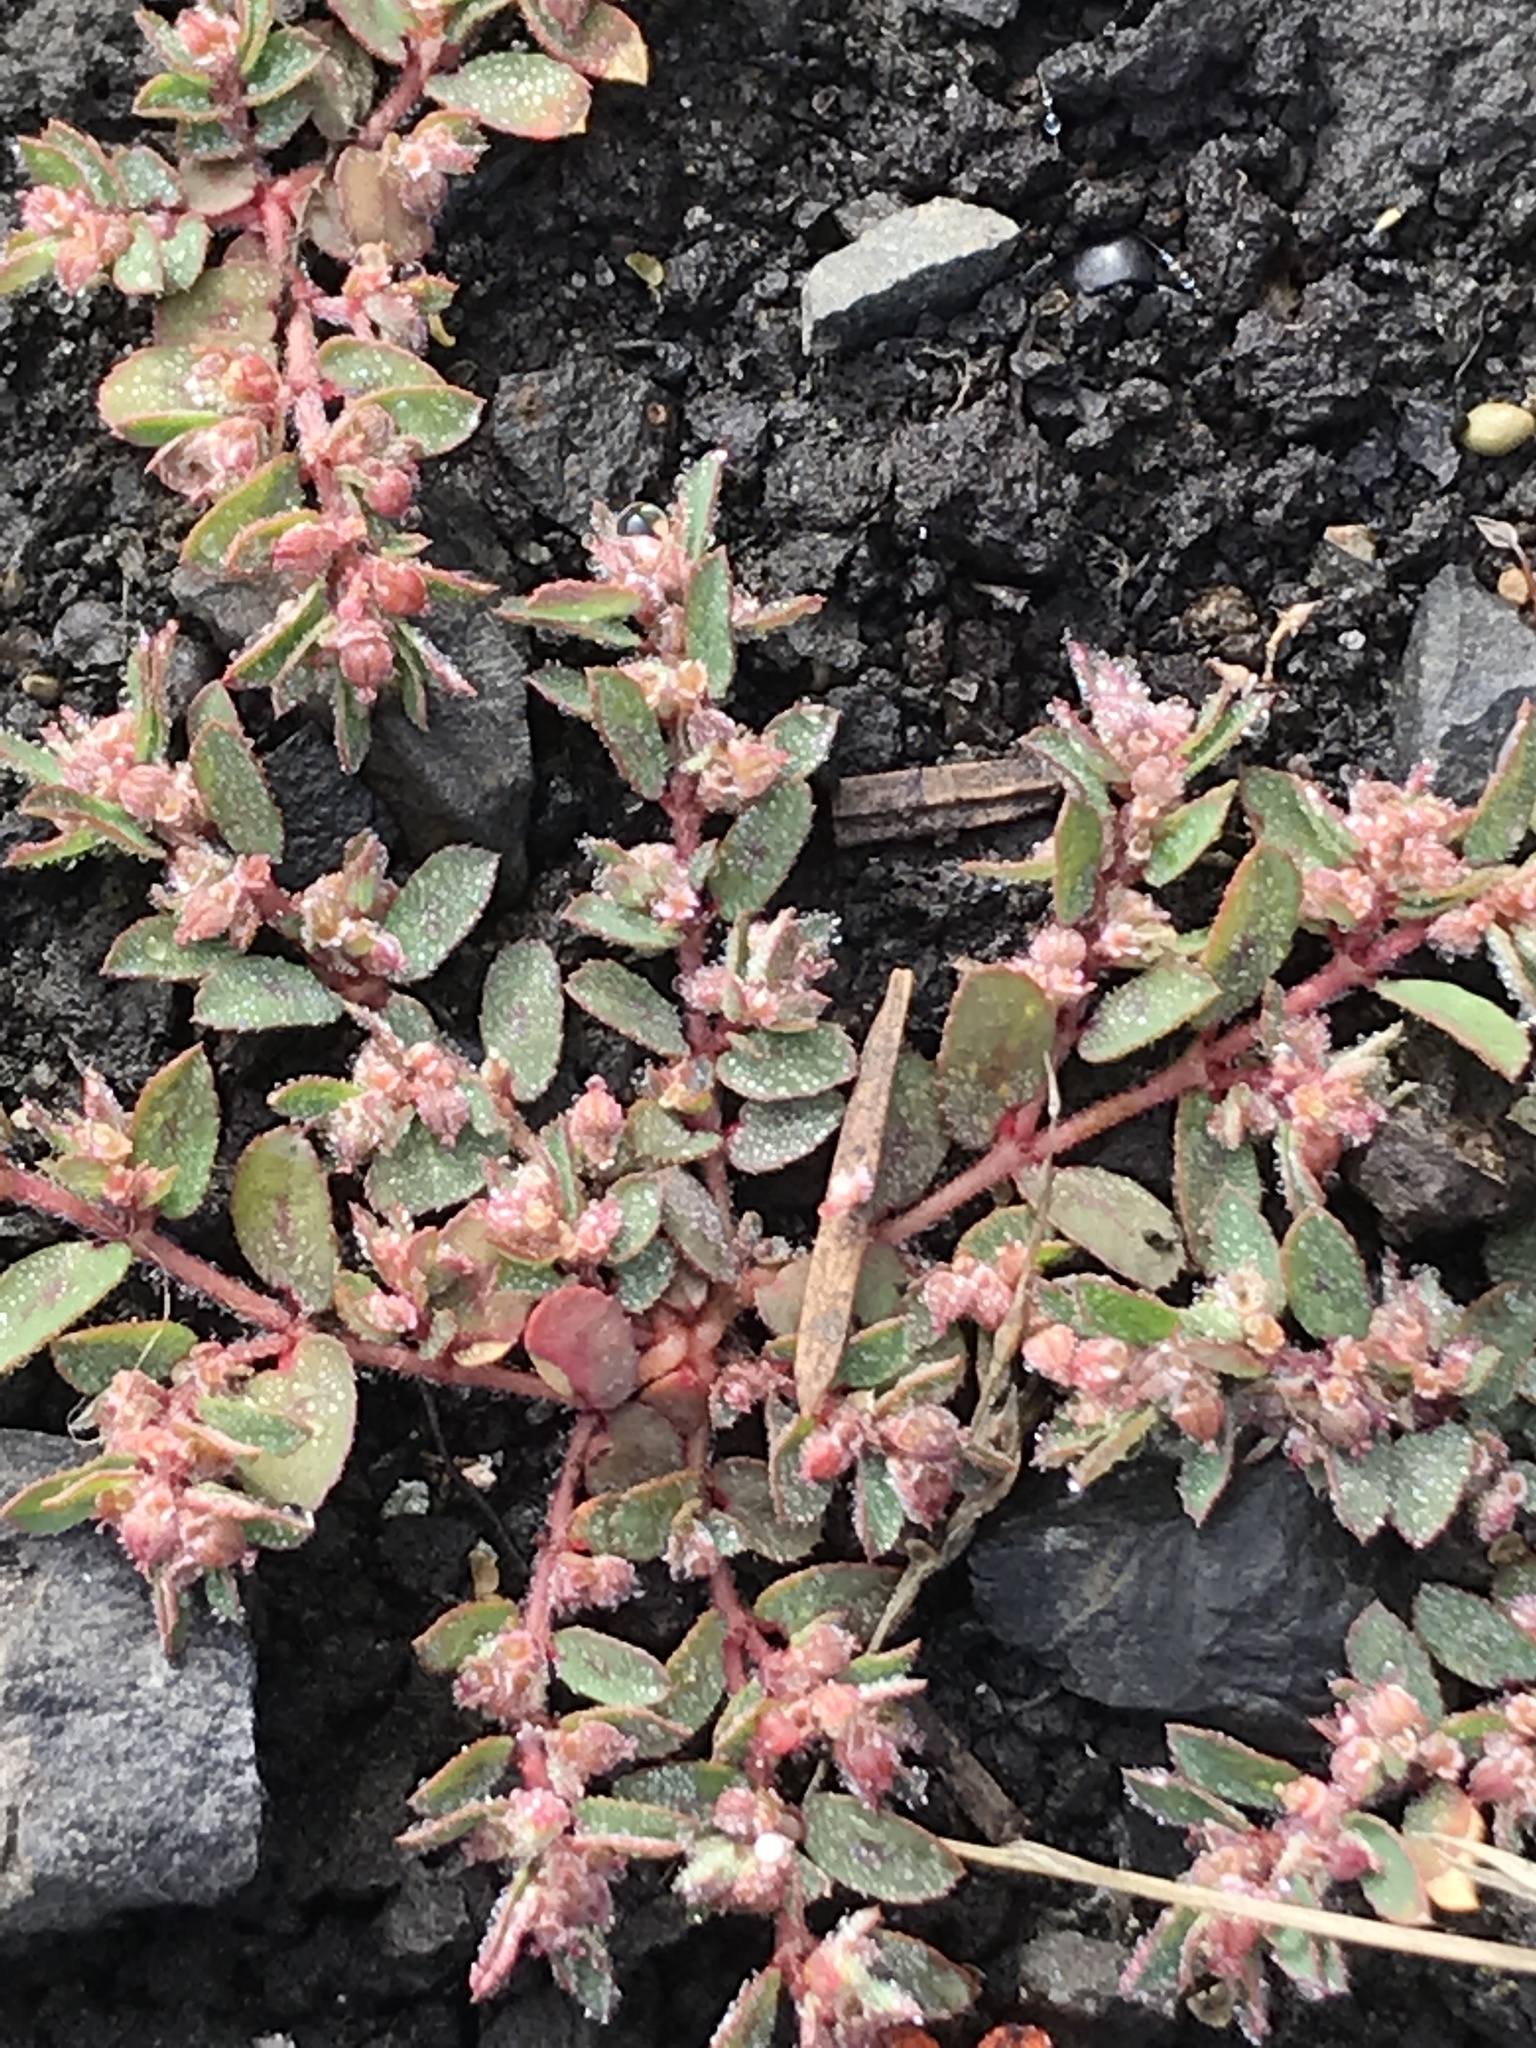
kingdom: Plantae
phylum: Tracheophyta
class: Magnoliopsida
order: Malpighiales
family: Euphorbiaceae
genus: Euphorbia
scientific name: Euphorbia maculata
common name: Spotted spurge
